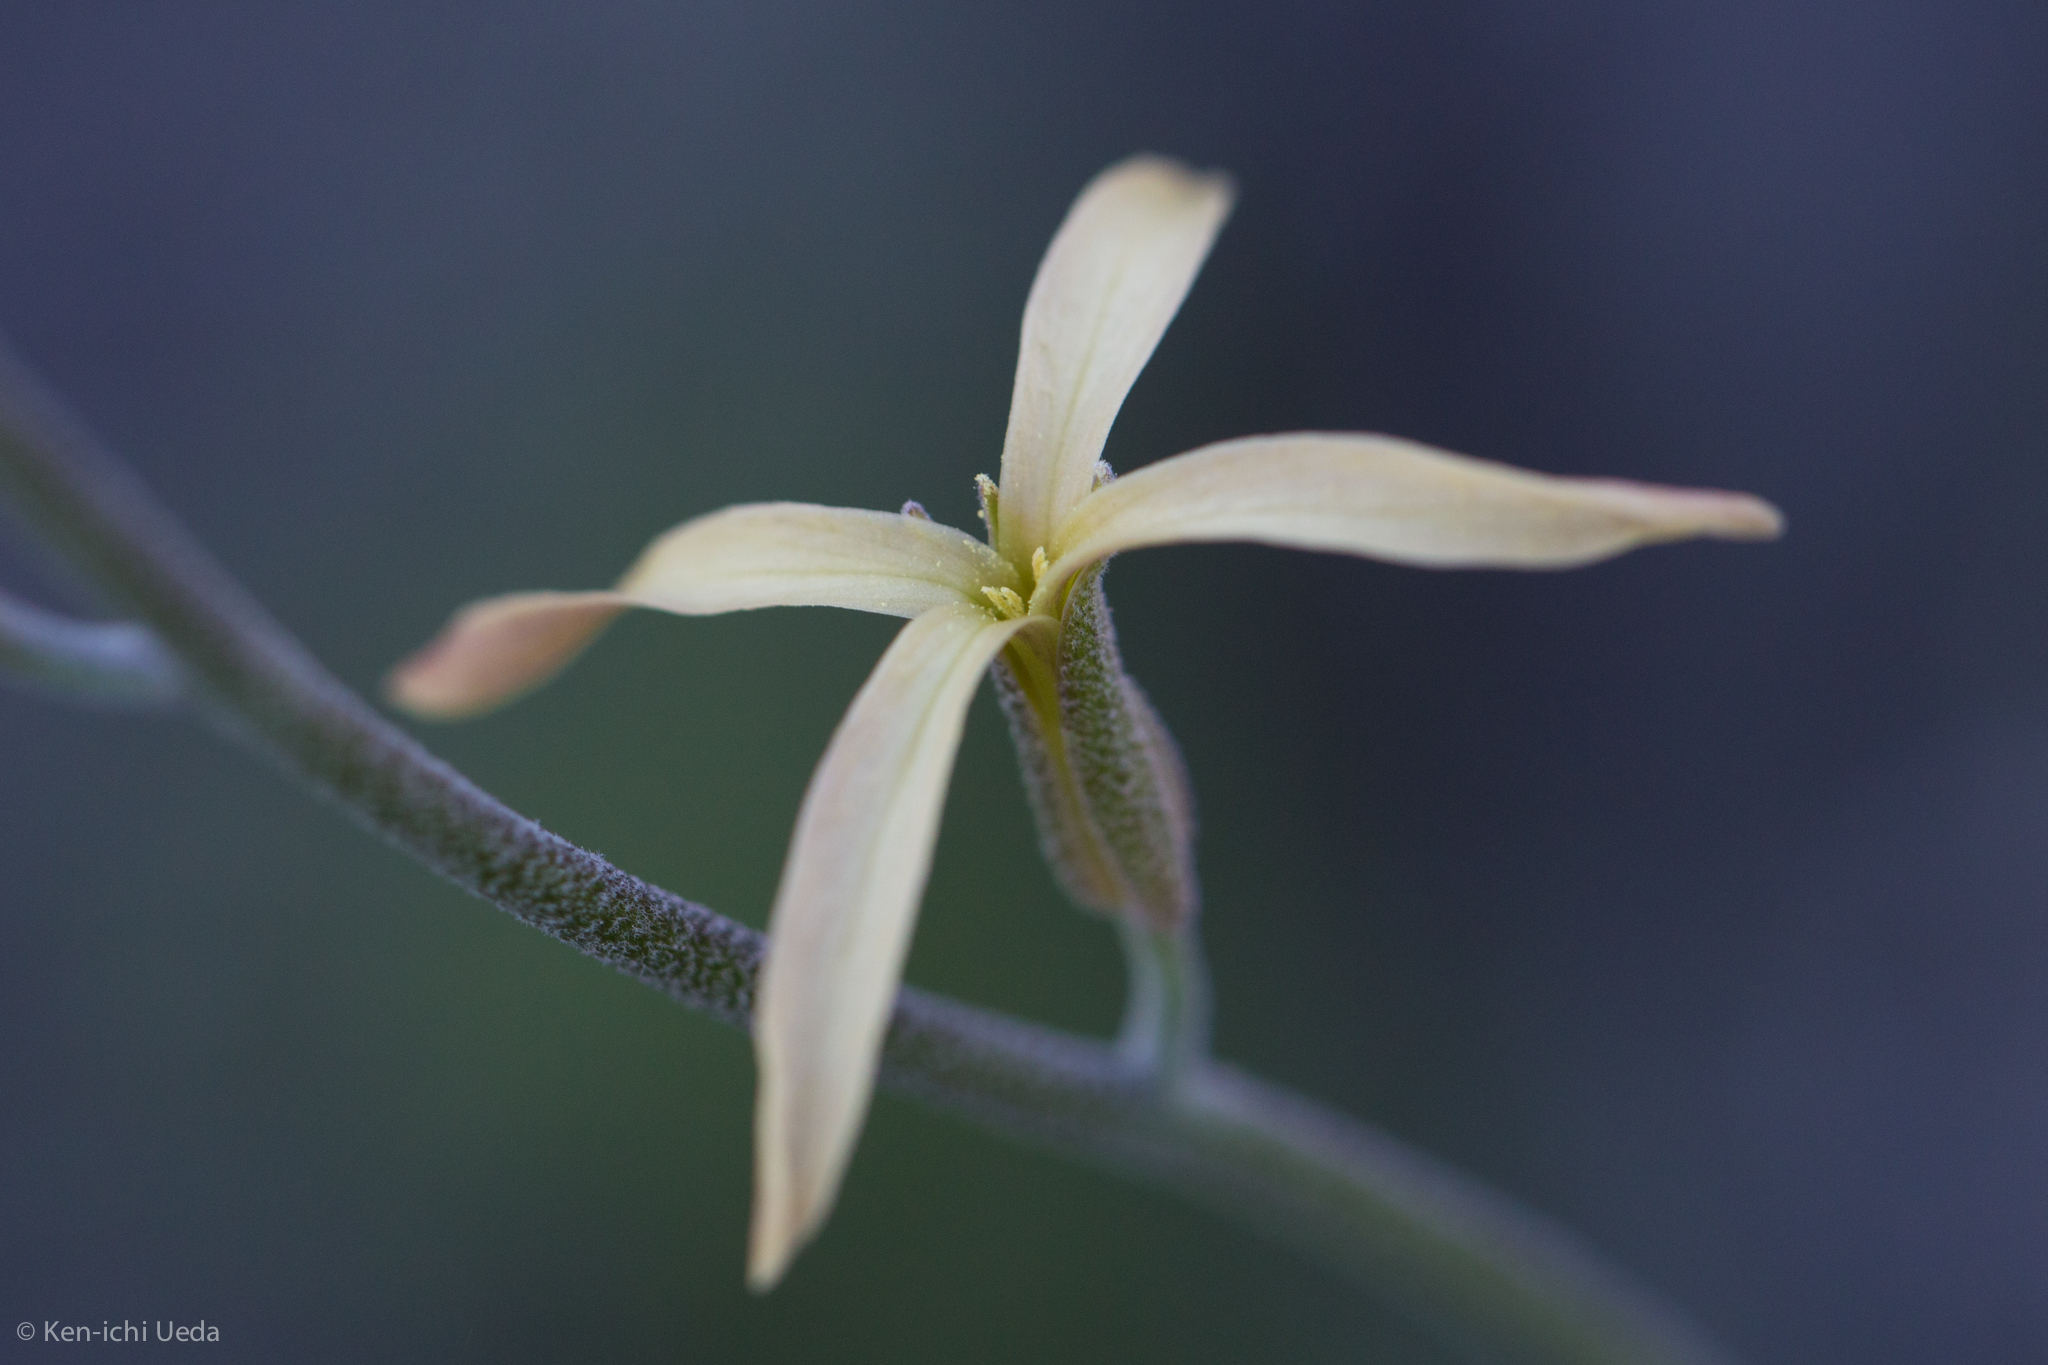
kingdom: Plantae
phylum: Tracheophyta
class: Magnoliopsida
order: Brassicales
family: Brassicaceae
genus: Lyrocarpa
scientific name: Lyrocarpa coulteri
